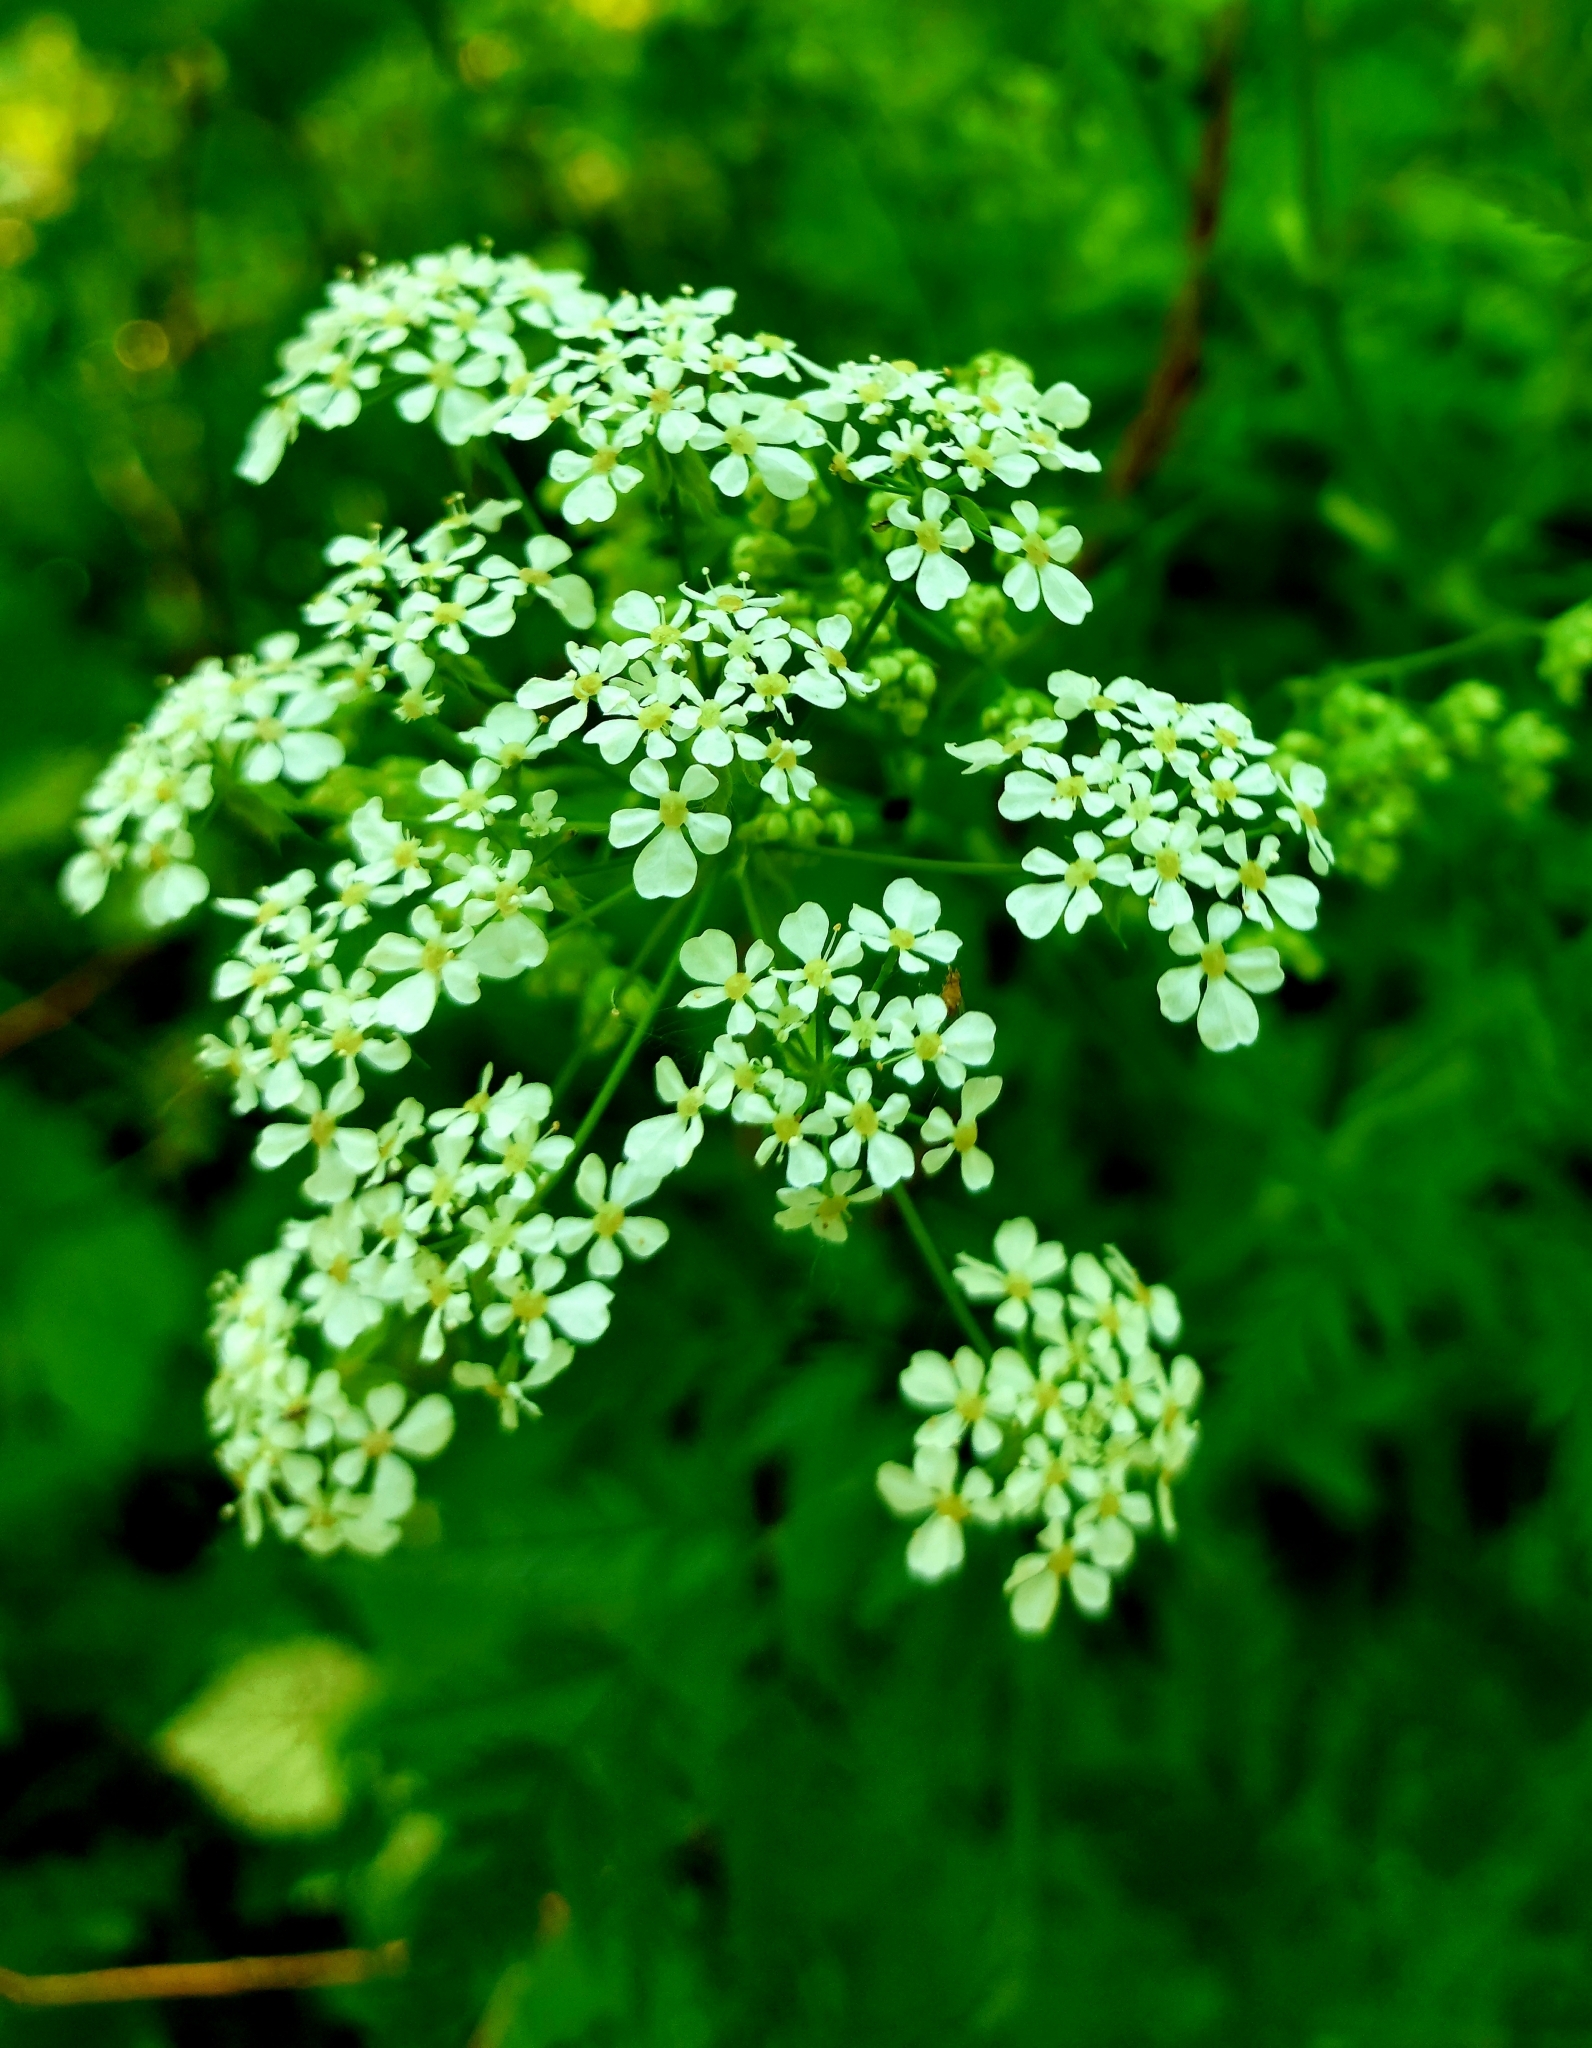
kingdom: Plantae
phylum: Tracheophyta
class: Magnoliopsida
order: Apiales
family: Apiaceae
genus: Anthriscus
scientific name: Anthriscus sylvestris
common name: Cow parsley
